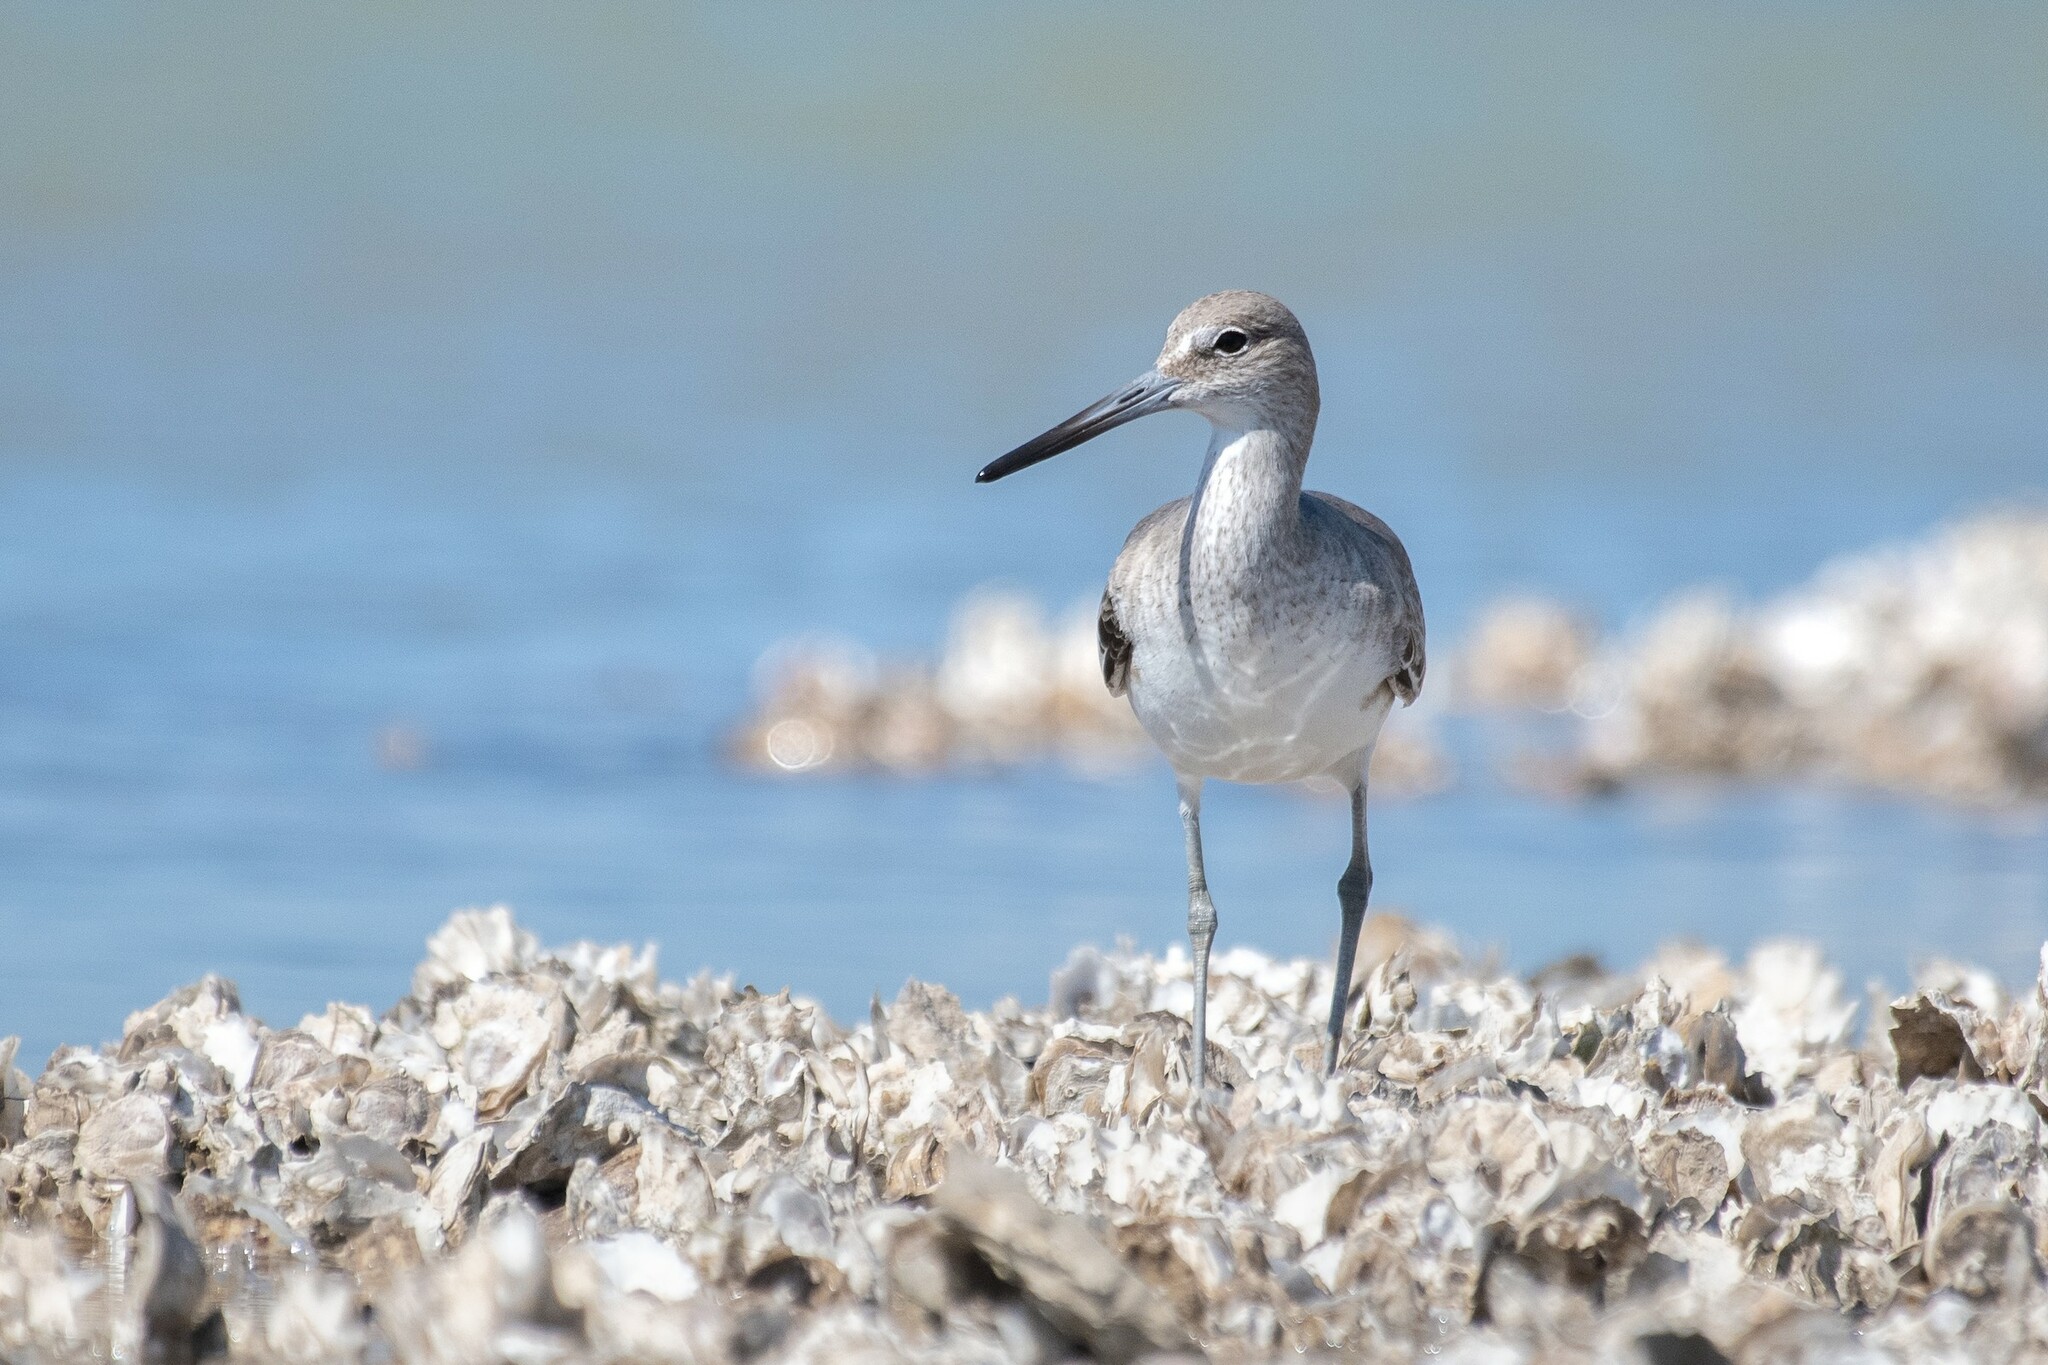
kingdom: Animalia
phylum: Chordata
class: Aves
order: Charadriiformes
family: Scolopacidae
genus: Tringa
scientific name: Tringa semipalmata
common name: Willet
